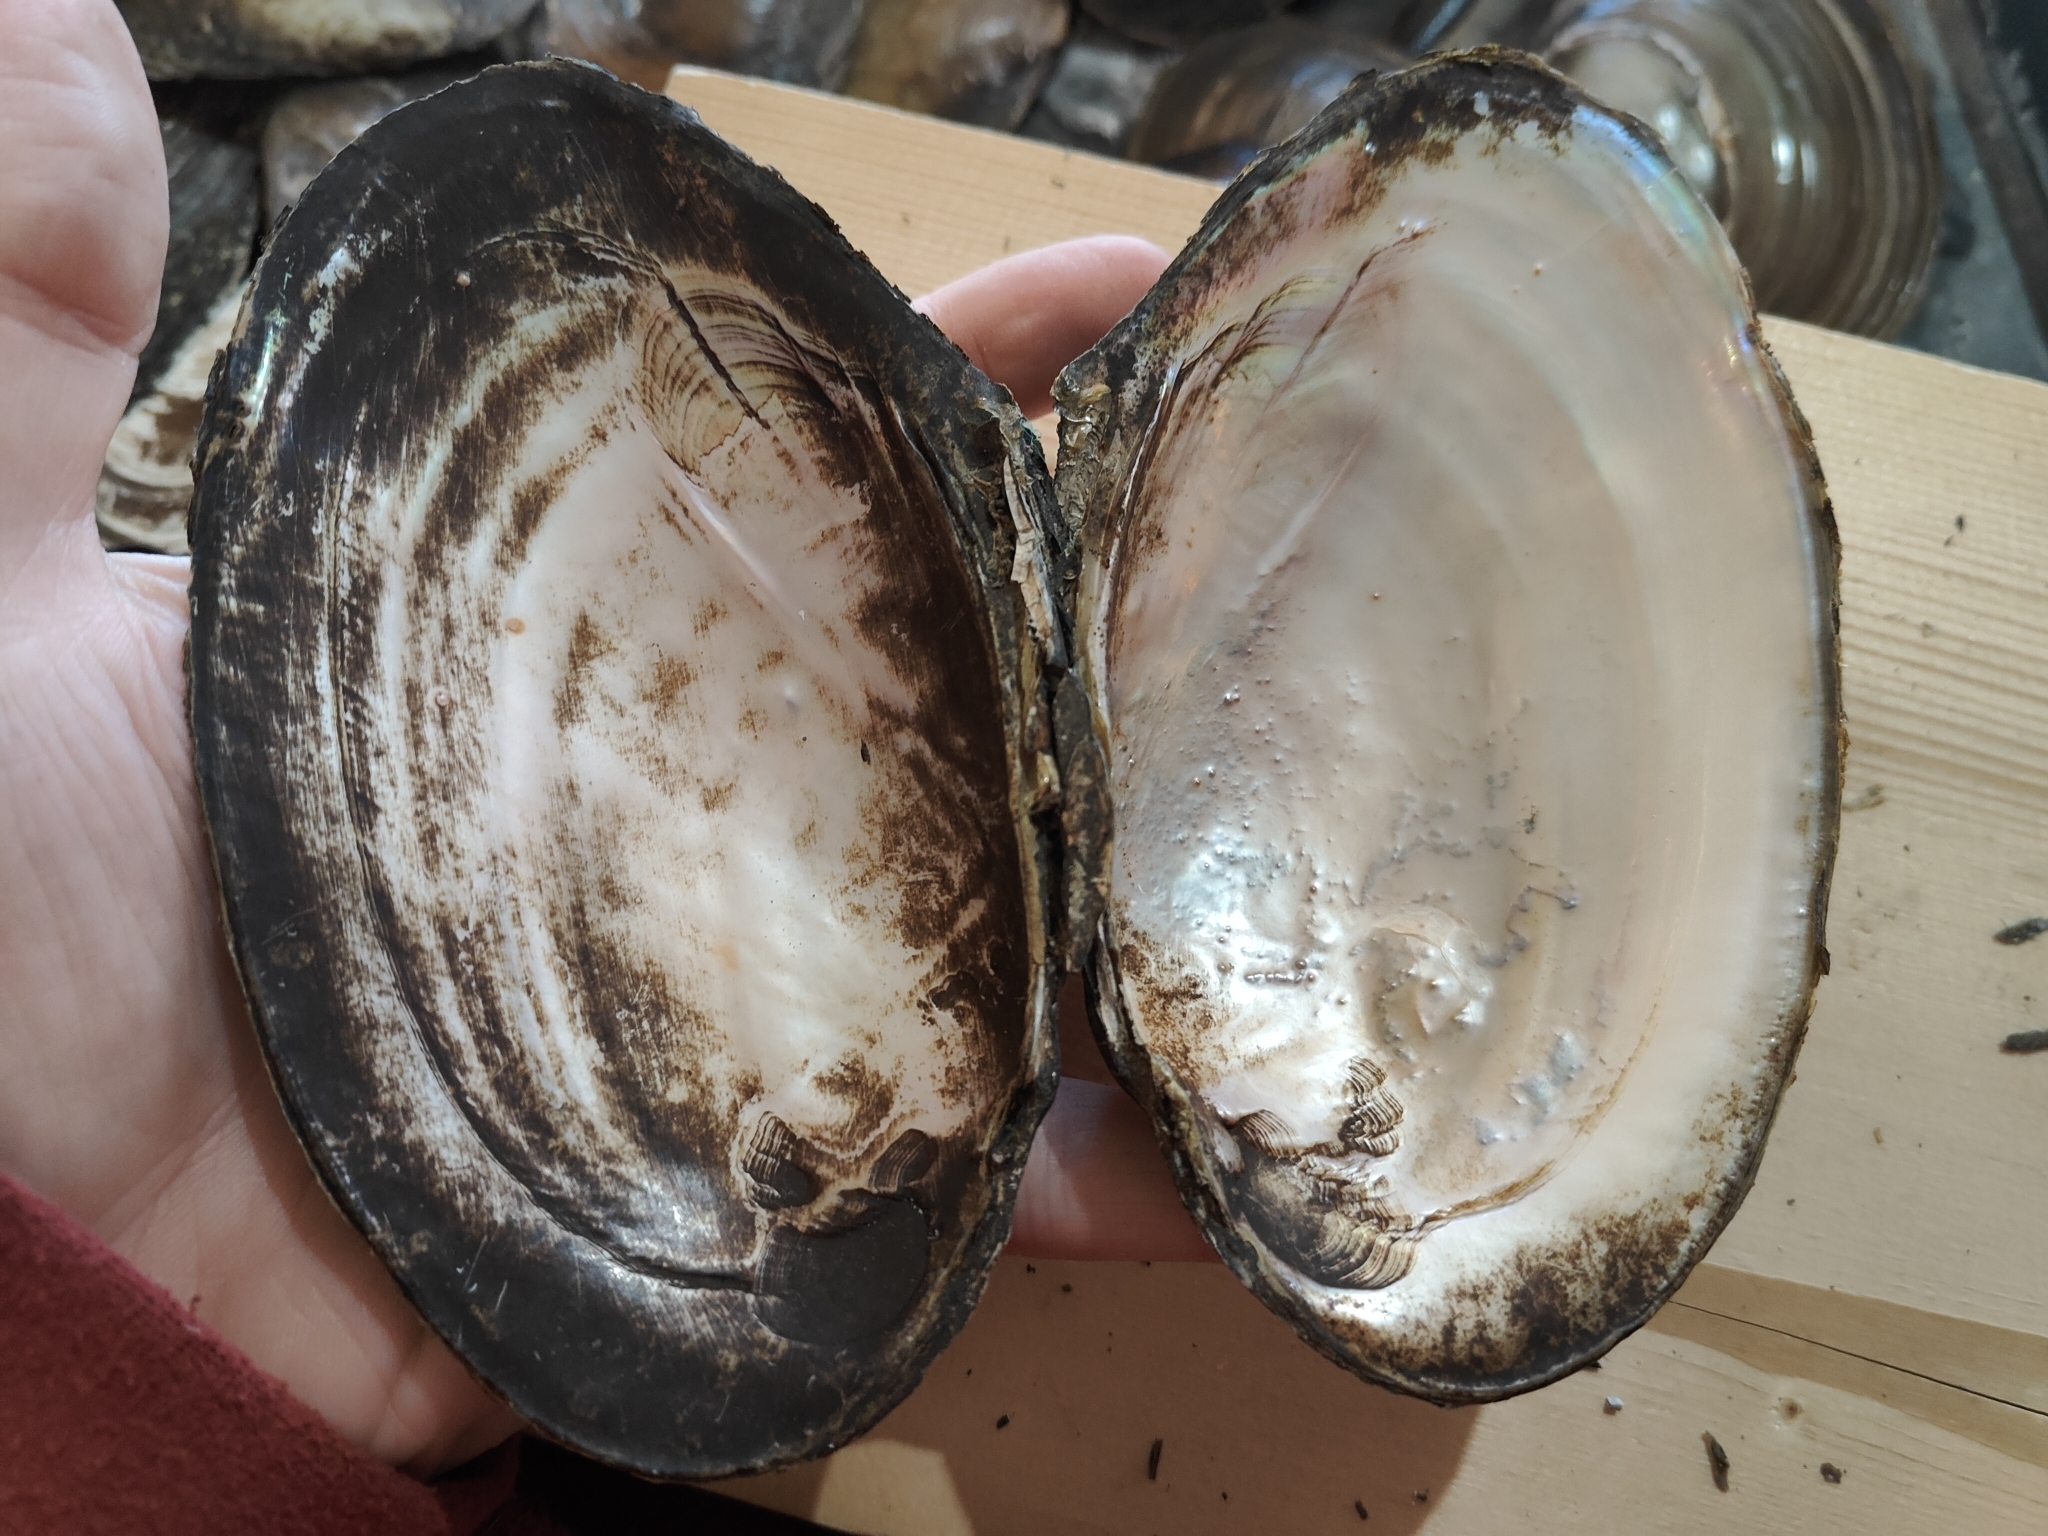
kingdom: Animalia
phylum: Mollusca
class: Bivalvia
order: Unionida
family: Unionidae
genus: Potamilus
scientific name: Potamilus fragilis
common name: Fragile papershell
